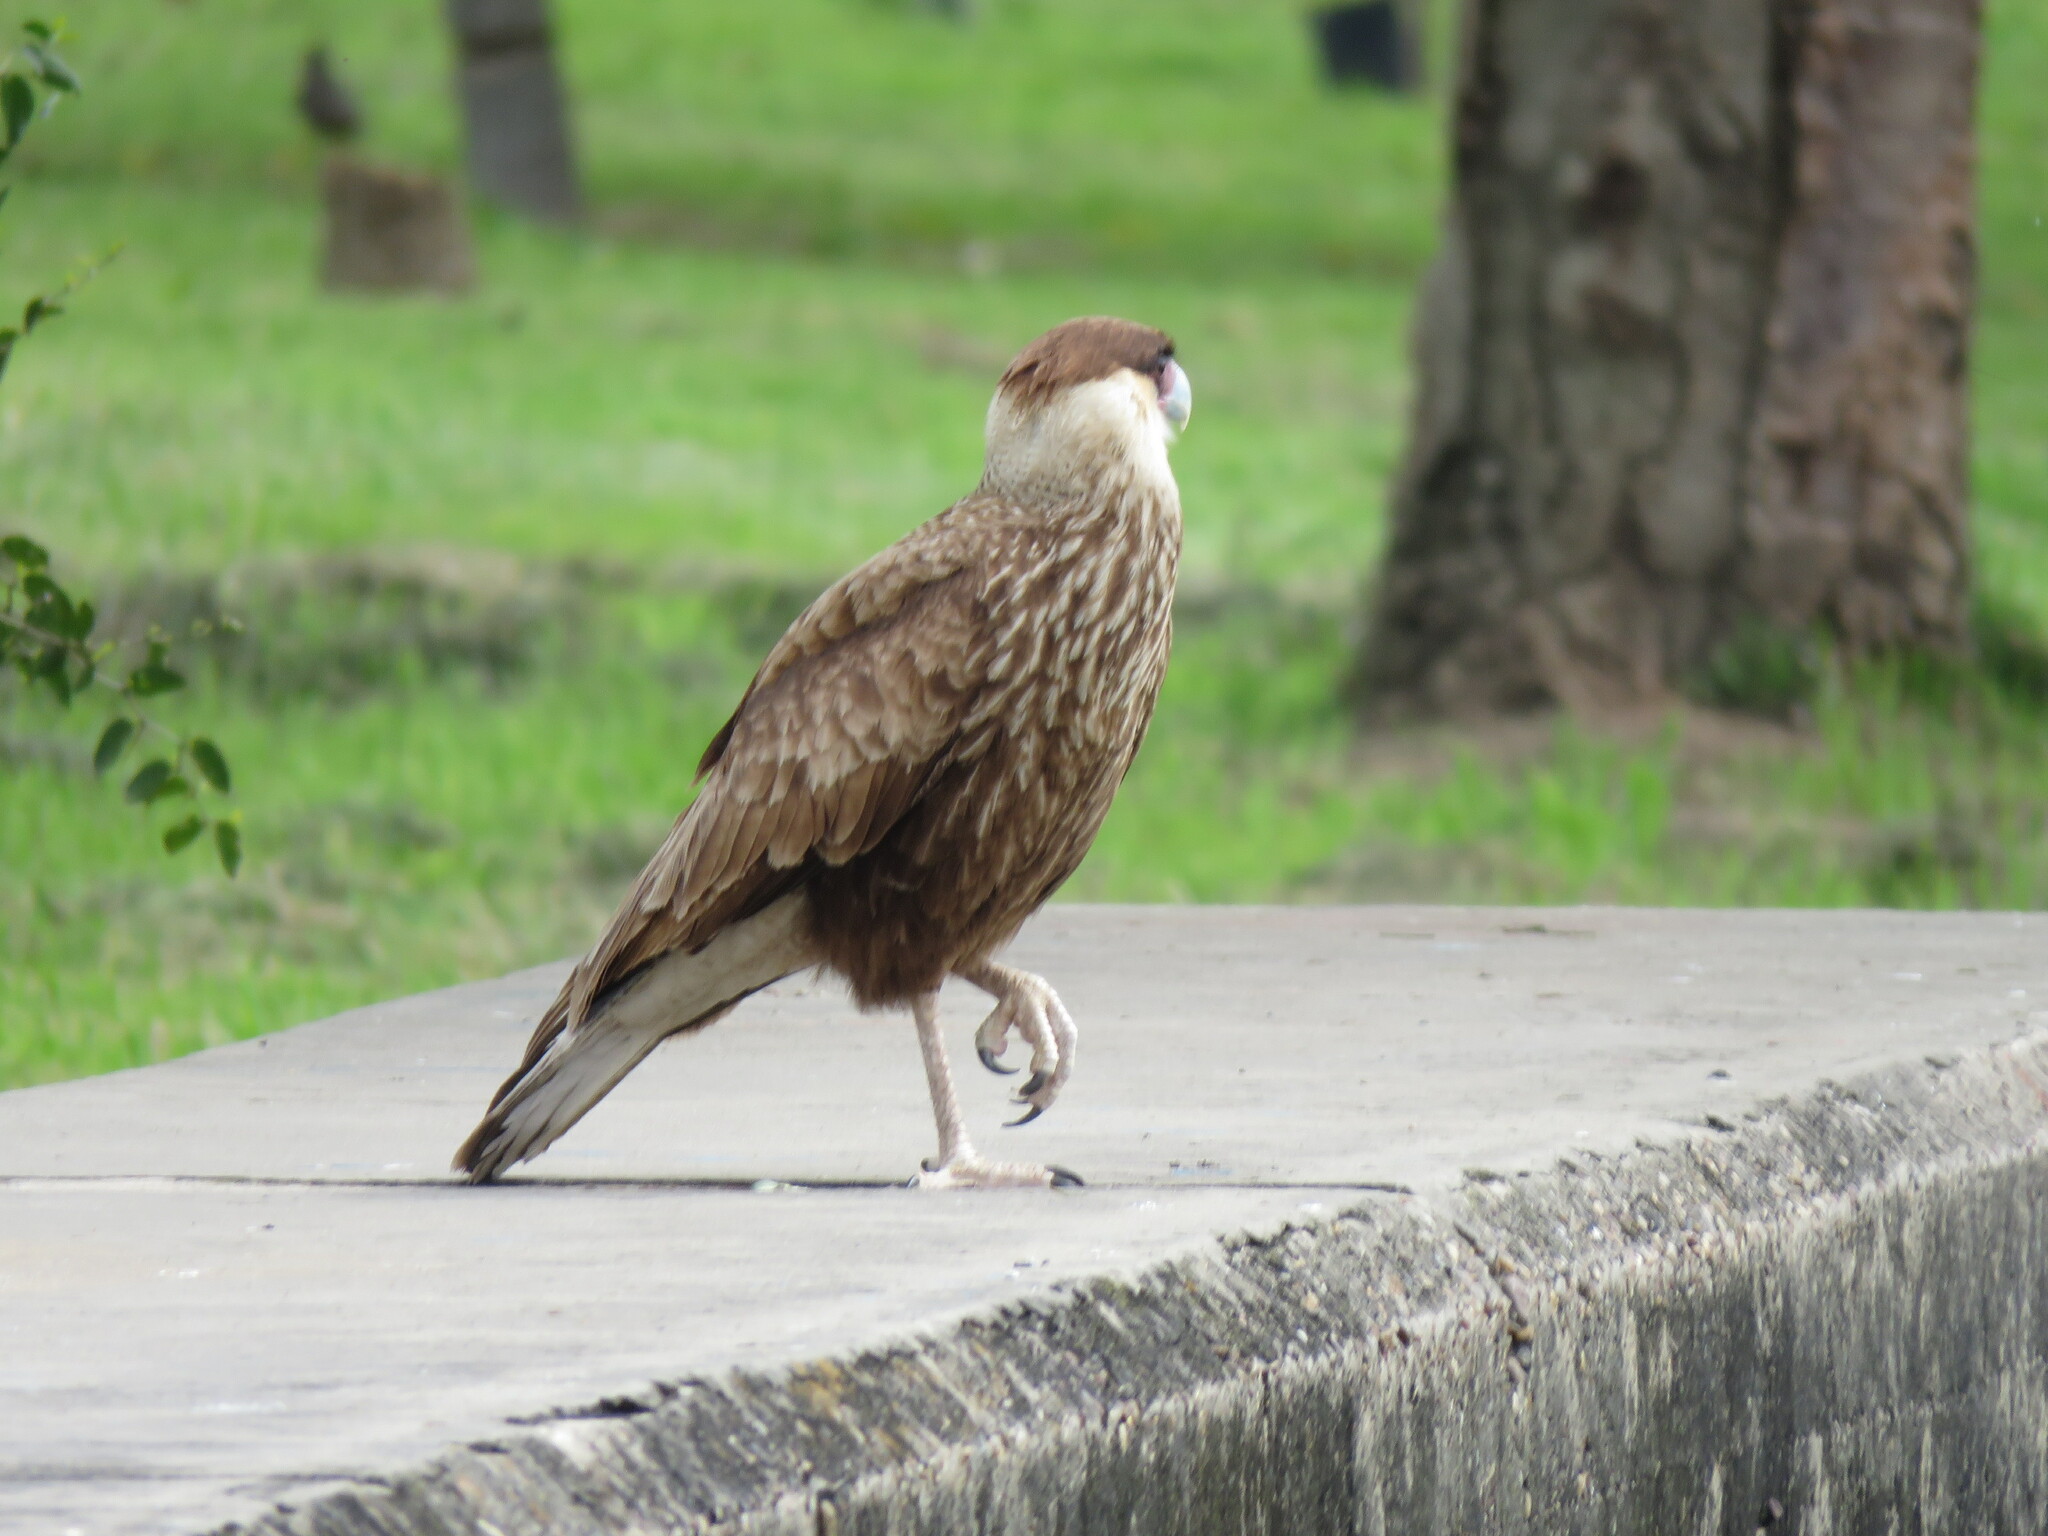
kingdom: Animalia
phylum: Chordata
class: Aves
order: Falconiformes
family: Falconidae
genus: Caracara
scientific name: Caracara plancus
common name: Southern caracara
